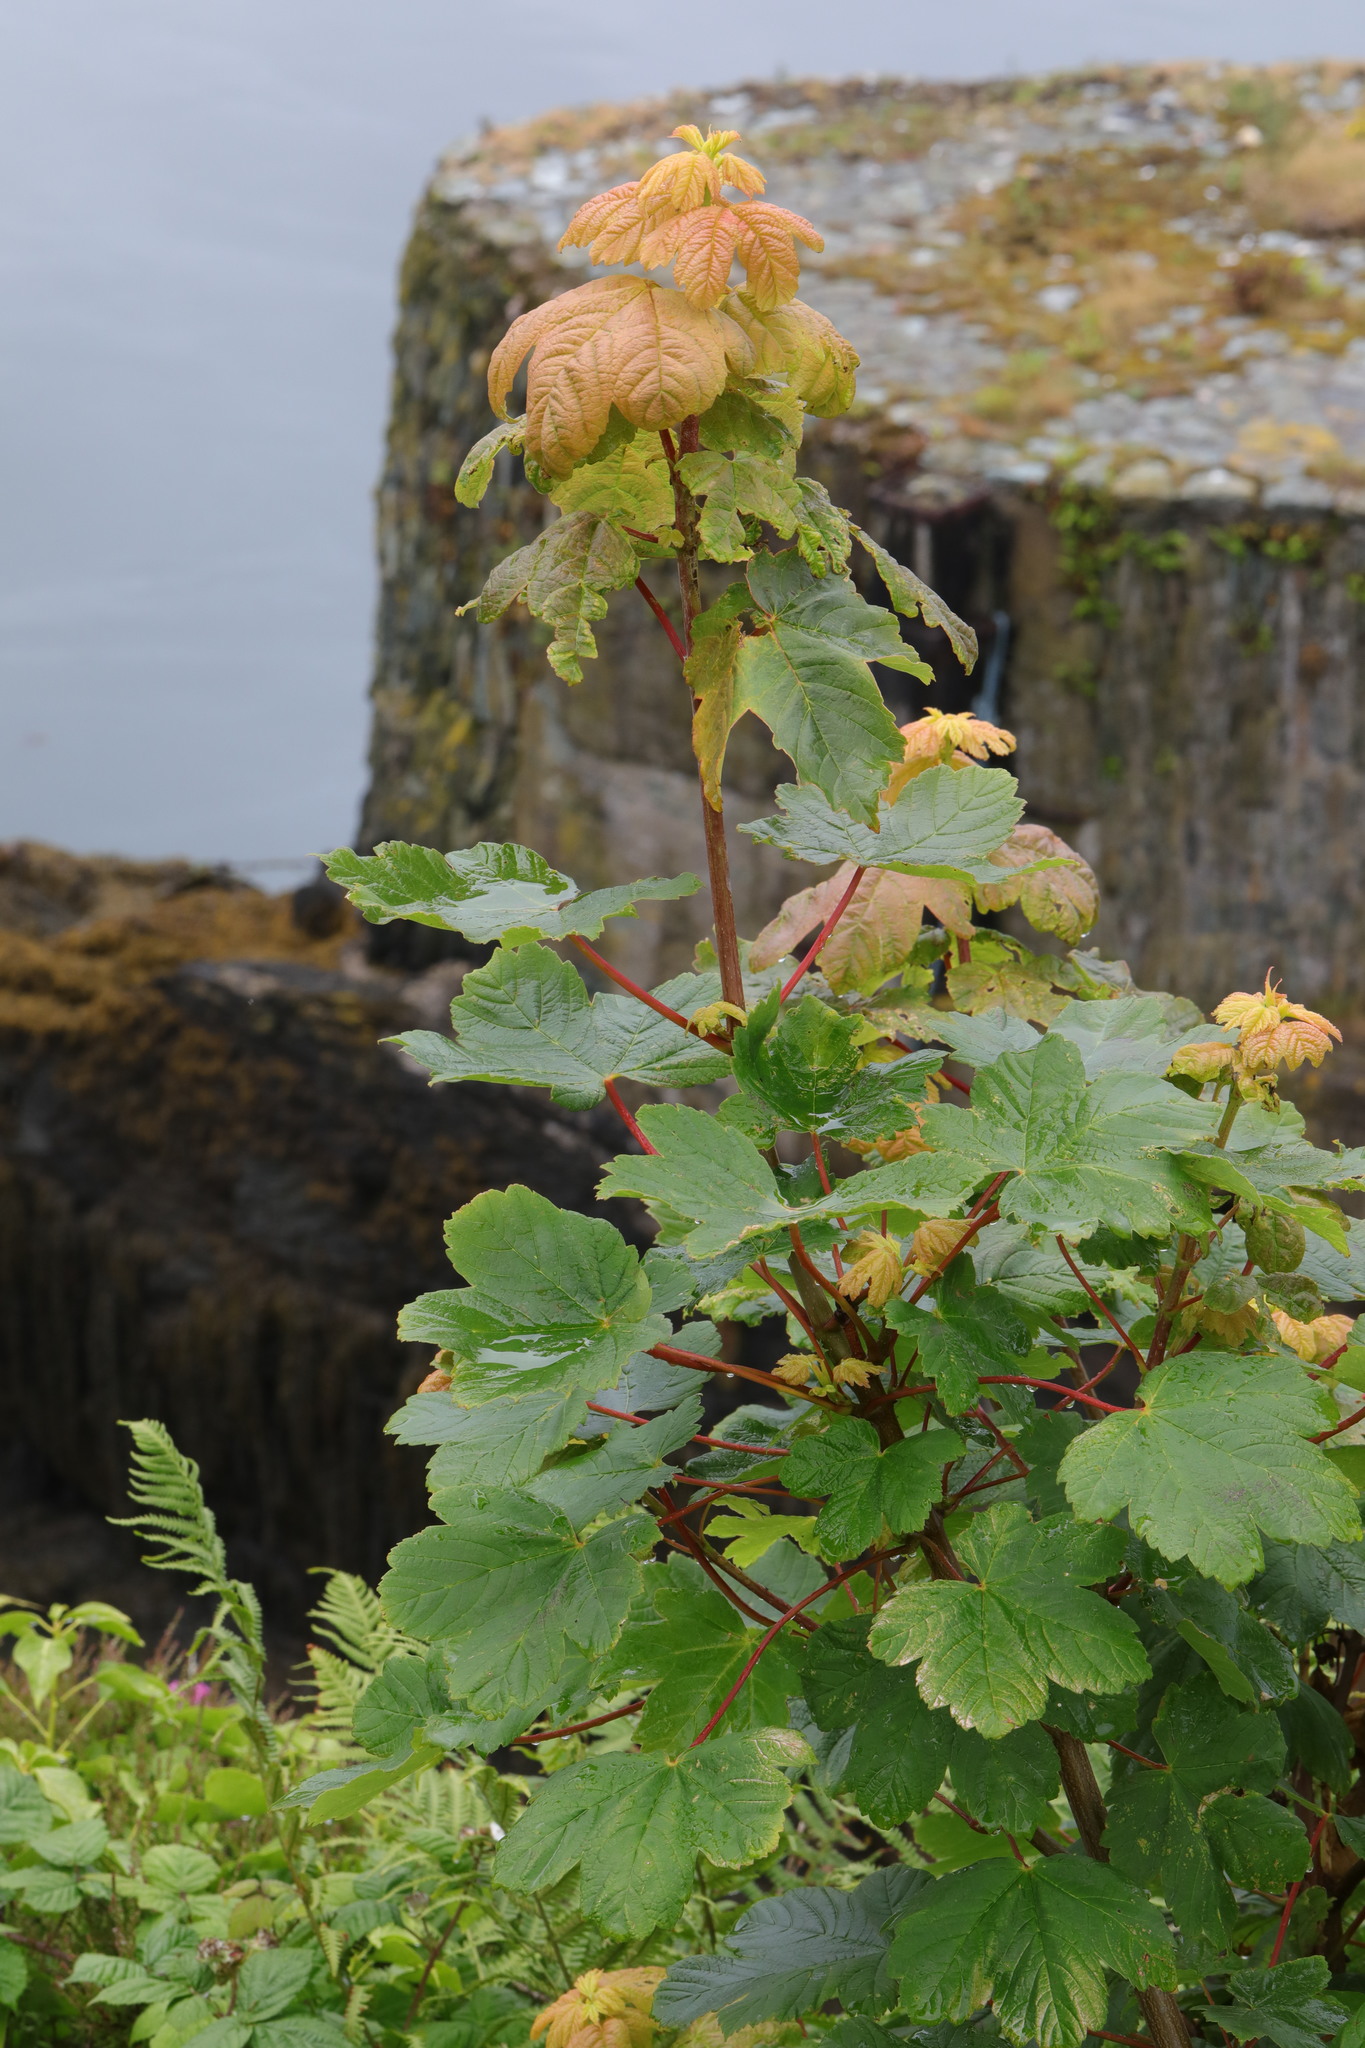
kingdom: Plantae
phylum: Tracheophyta
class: Magnoliopsida
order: Sapindales
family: Sapindaceae
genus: Acer
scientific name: Acer pseudoplatanus
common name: Sycamore
